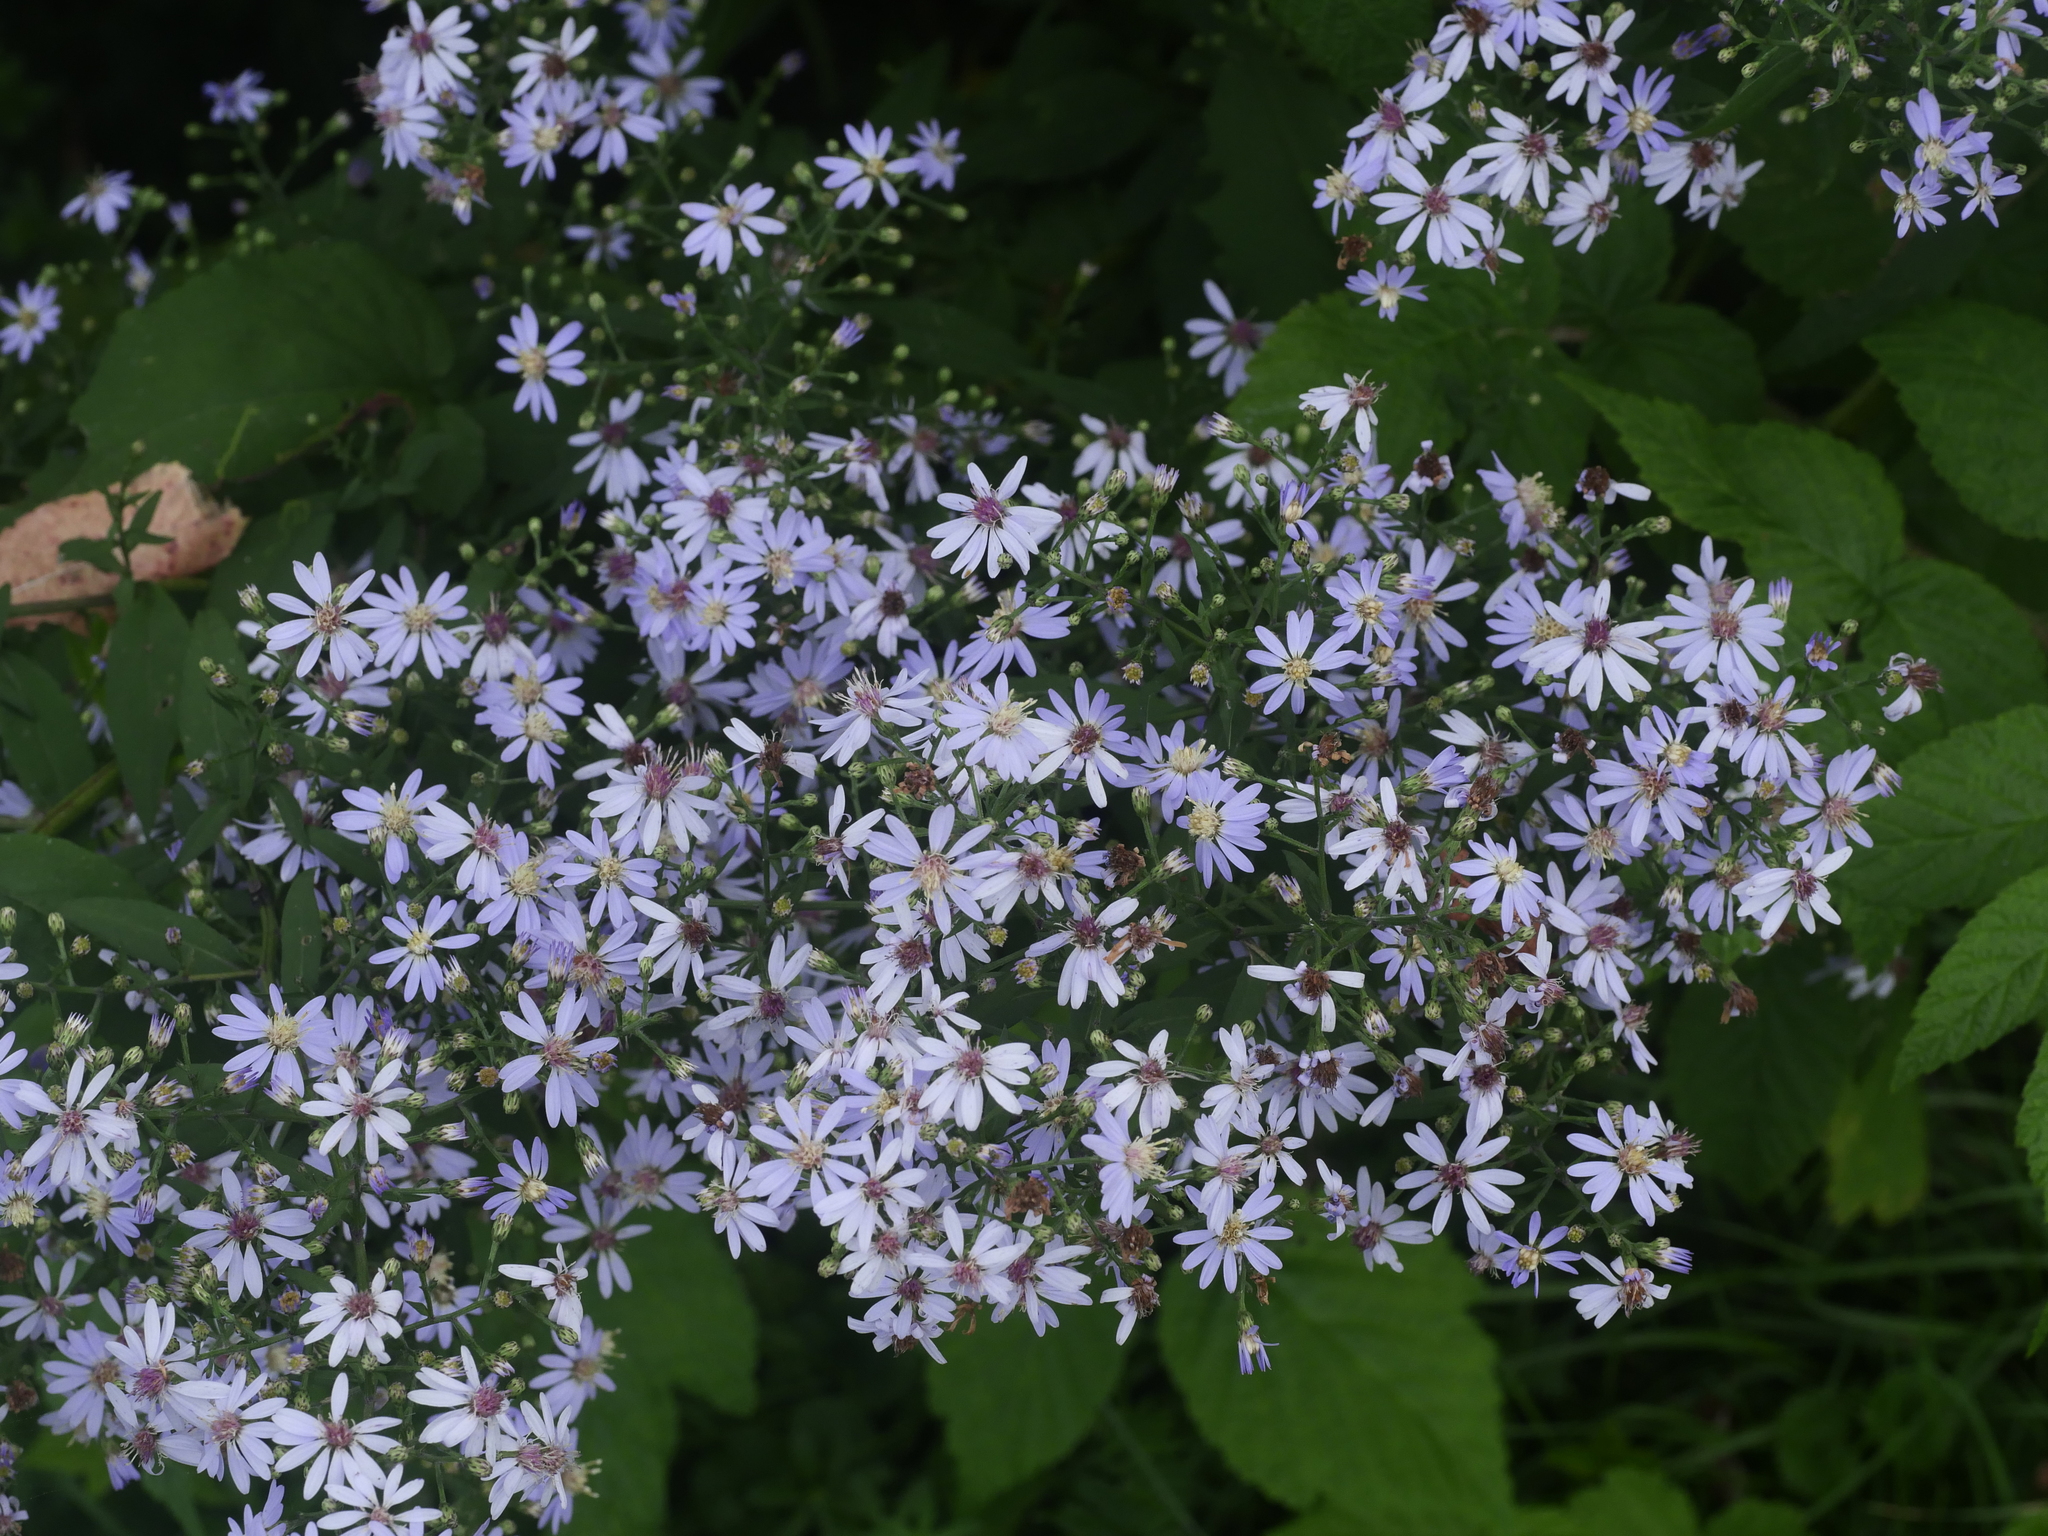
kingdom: Plantae
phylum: Tracheophyta
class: Magnoliopsida
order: Asterales
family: Asteraceae
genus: Symphyotrichum
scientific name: Symphyotrichum cordifolium
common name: Beeweed
